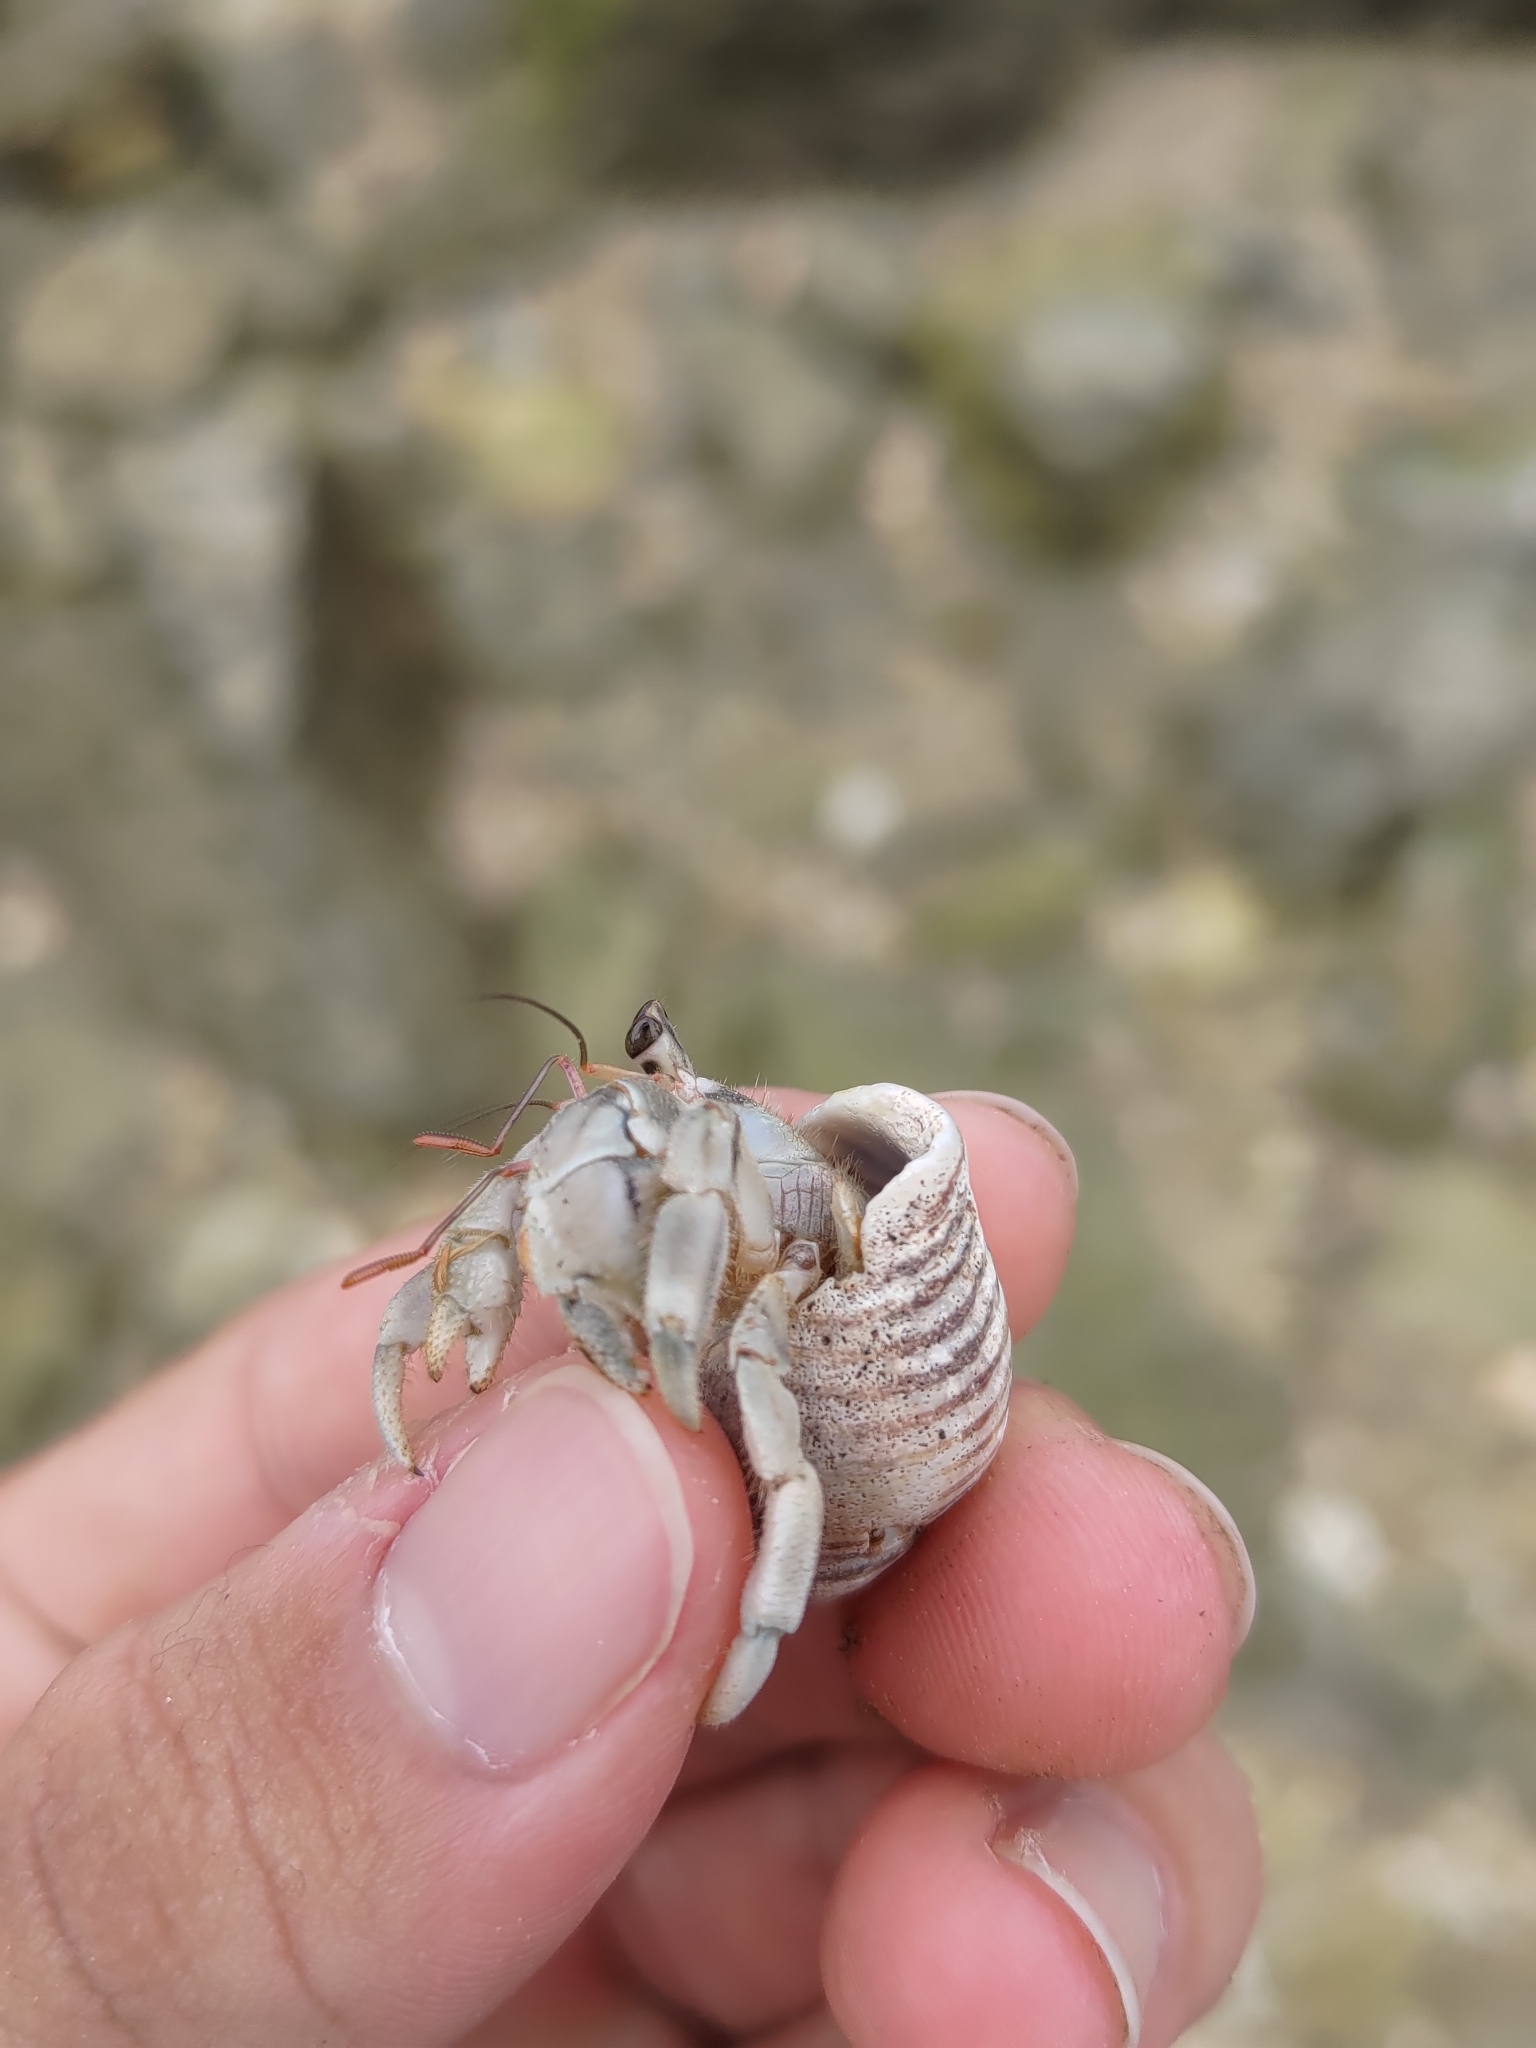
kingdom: Animalia
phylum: Arthropoda
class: Malacostraca
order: Decapoda
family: Coenobitidae
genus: Coenobita
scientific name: Coenobita rugosus
